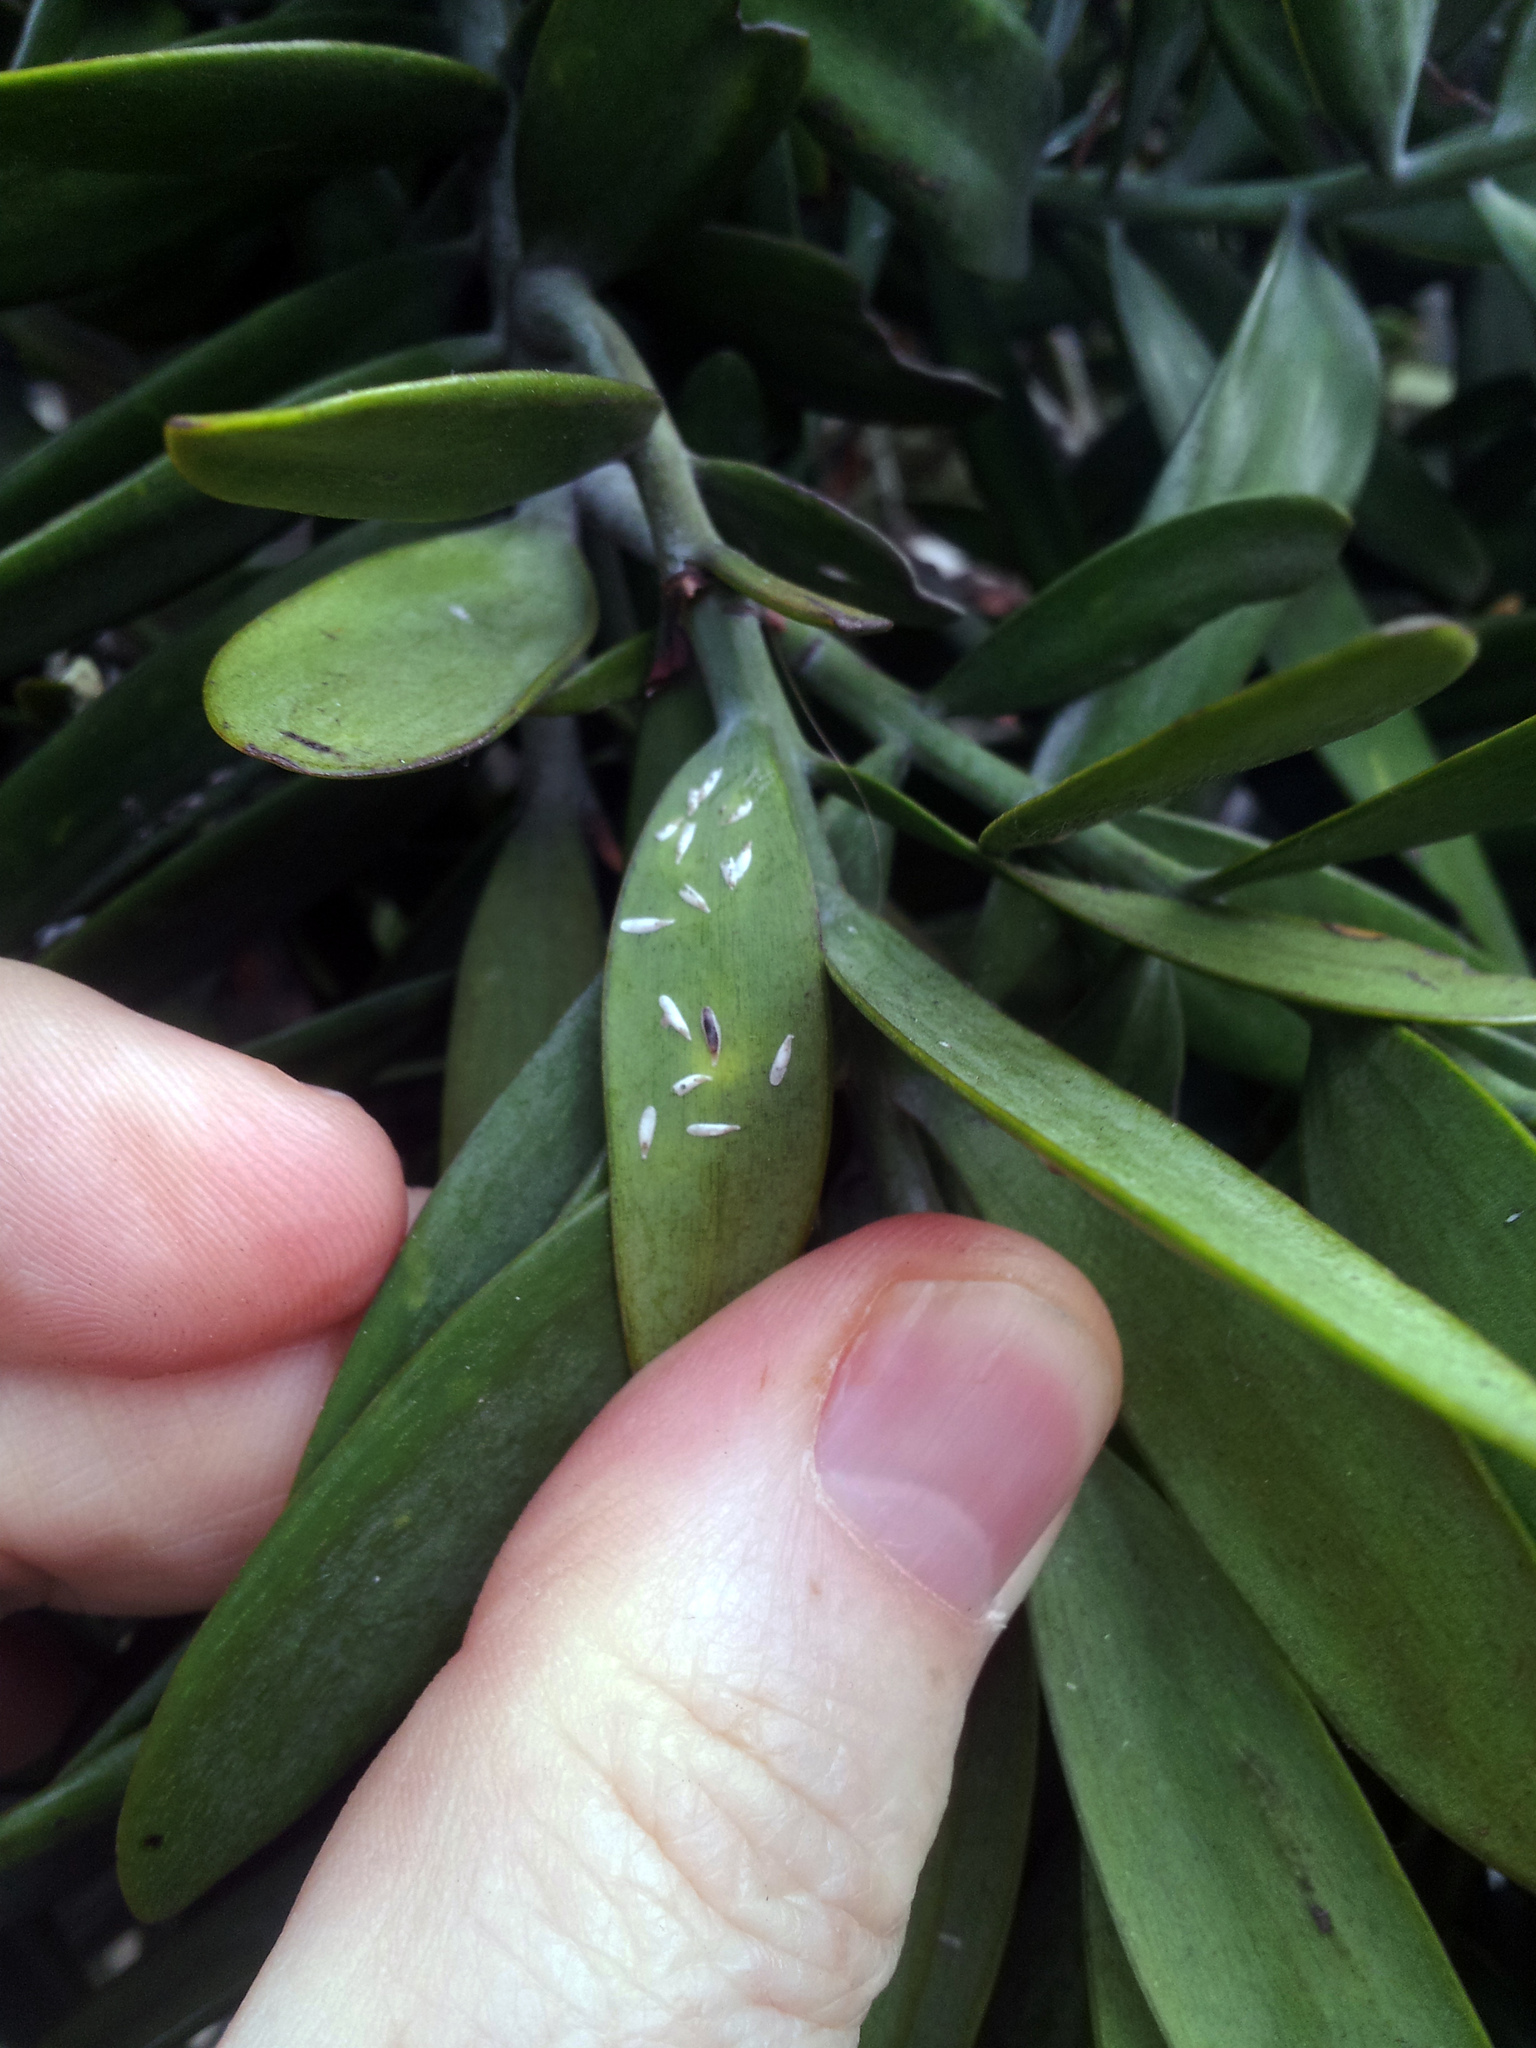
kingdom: Animalia
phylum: Arthropoda
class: Insecta
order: Hemiptera
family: Diaspididae
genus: Leucaspis
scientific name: Leucaspis portaeaureae
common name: Podocarpus leucaspis scale
